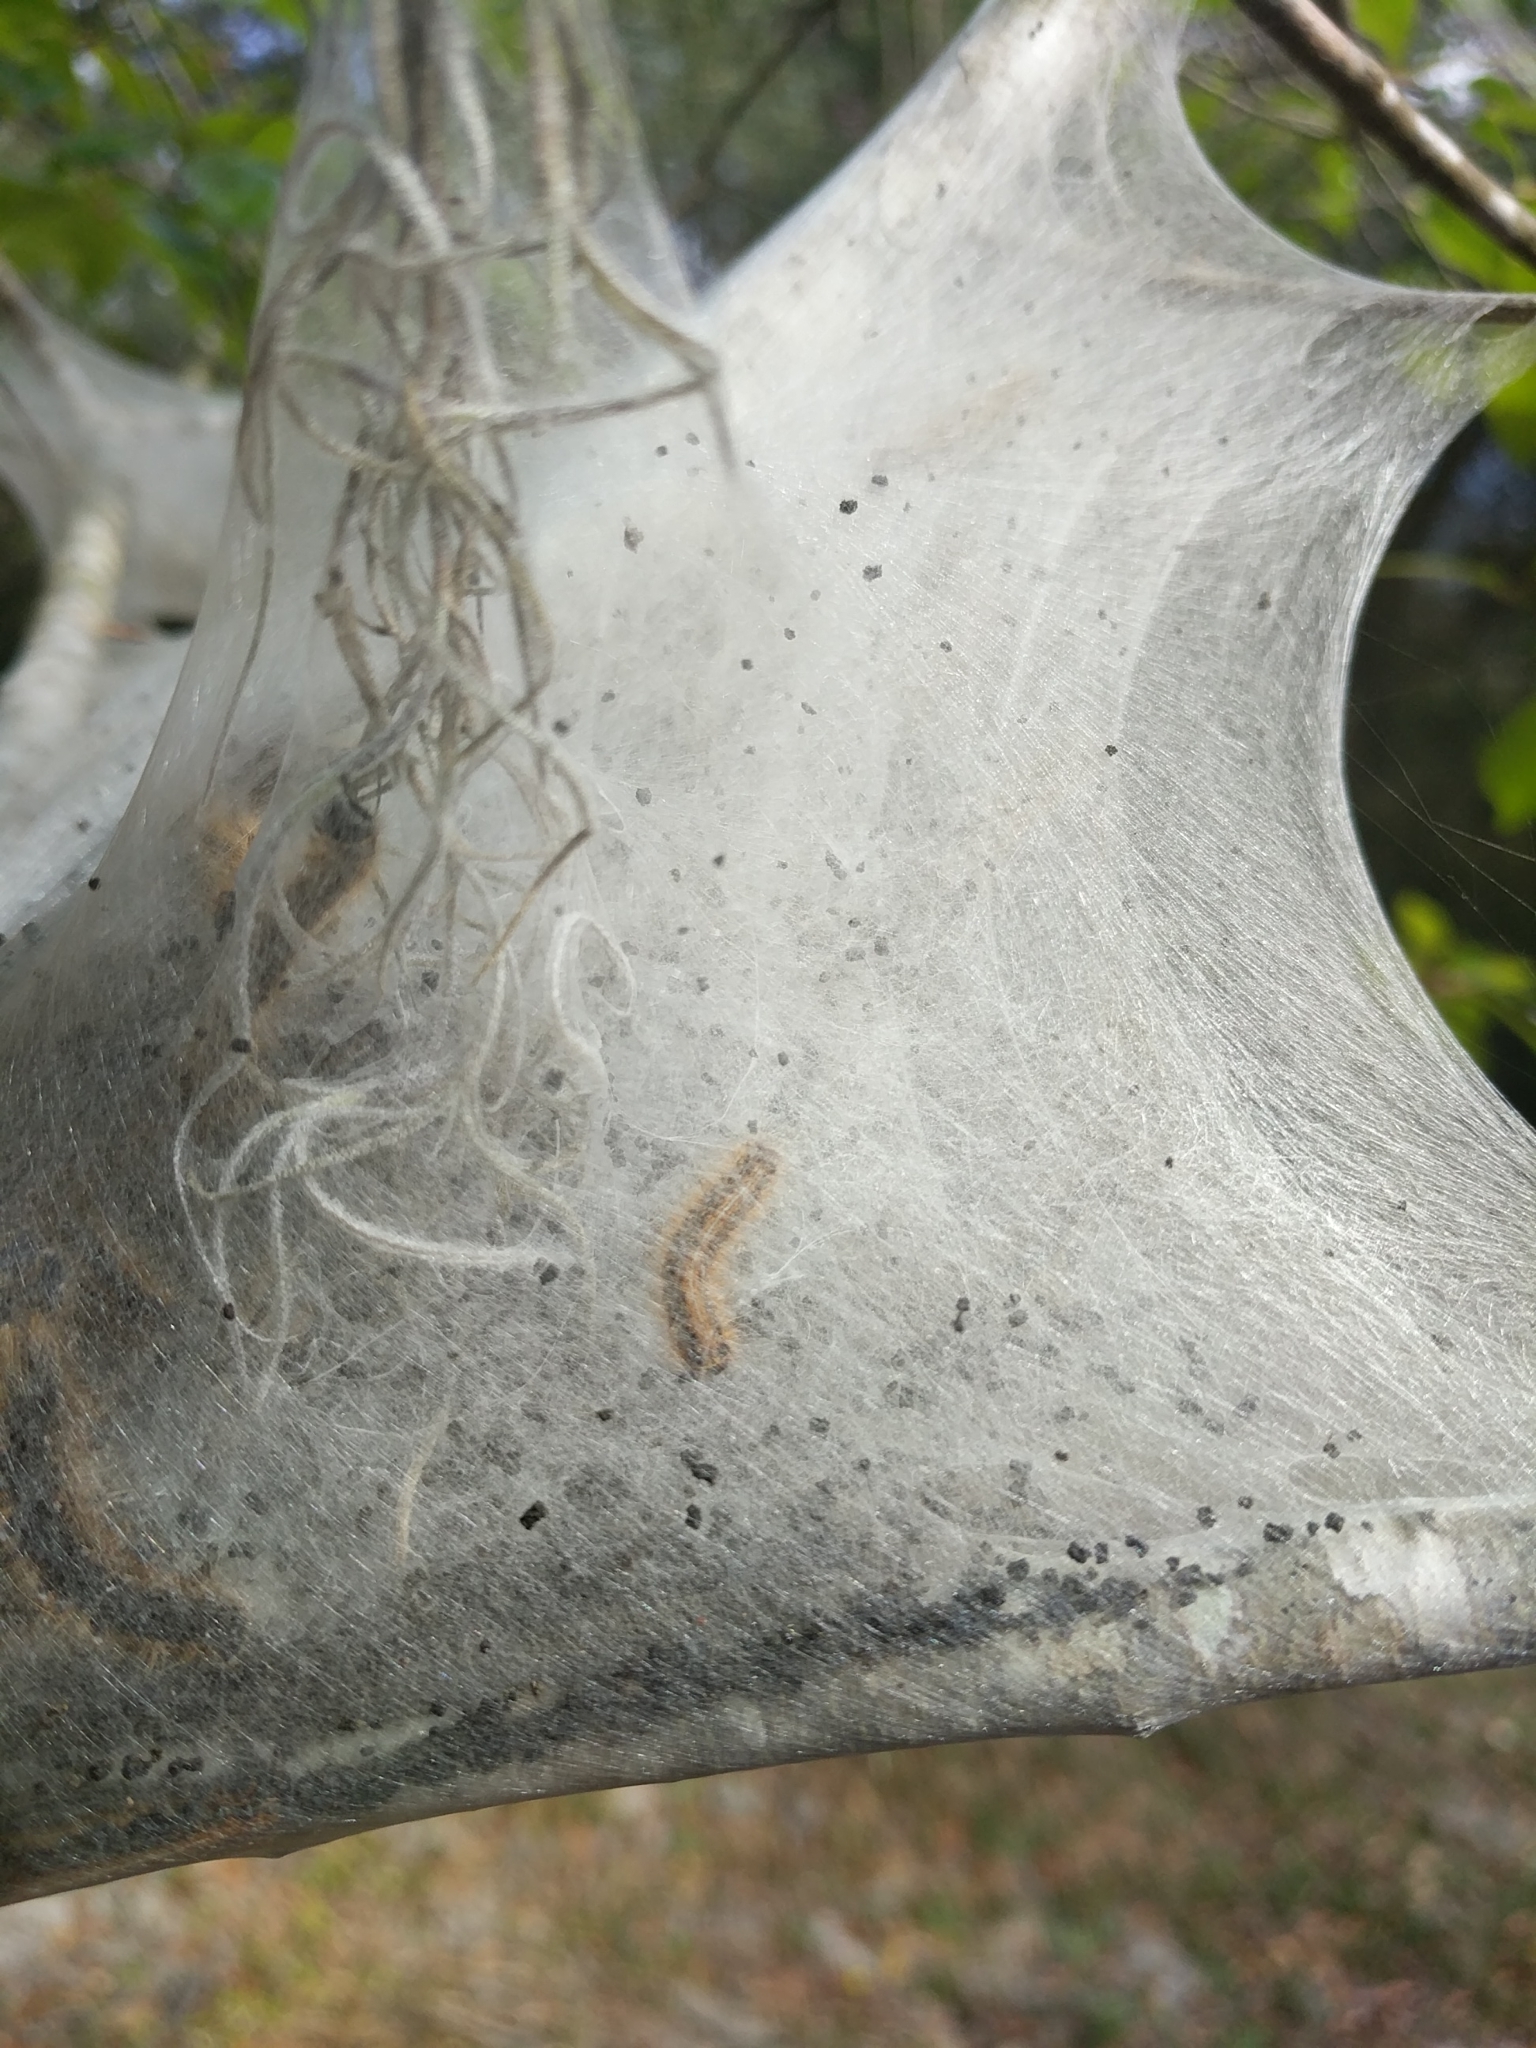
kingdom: Animalia
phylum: Arthropoda
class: Insecta
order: Lepidoptera
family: Lasiocampidae
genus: Malacosoma
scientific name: Malacosoma americana
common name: Eastern tent caterpillar moth
